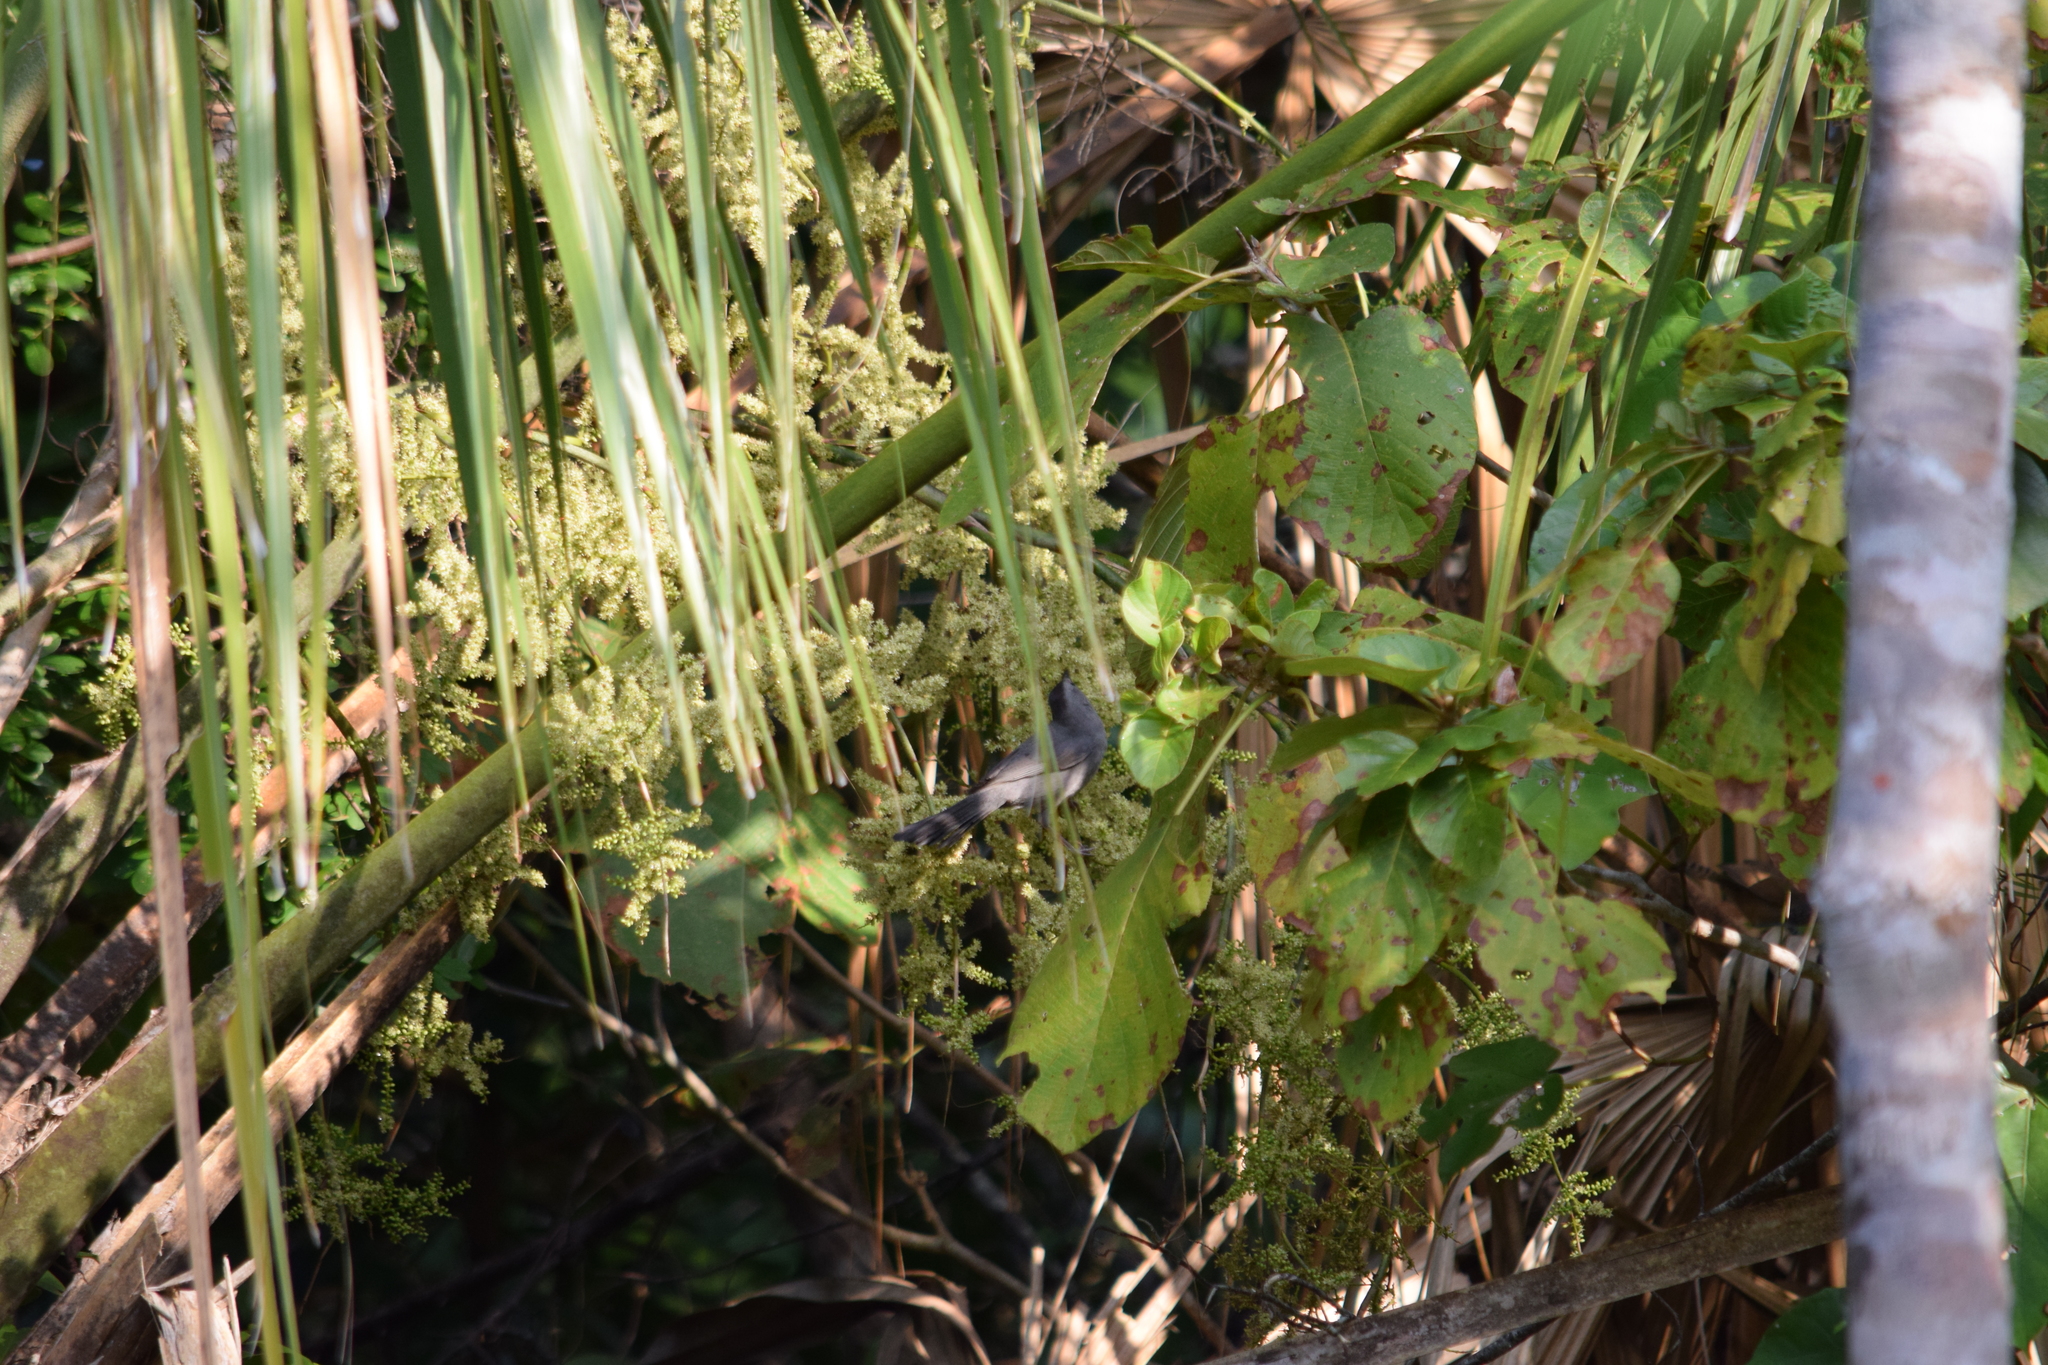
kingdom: Animalia
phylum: Chordata
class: Aves
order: Passeriformes
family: Mimidae
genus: Dumetella
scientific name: Dumetella carolinensis
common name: Gray catbird
